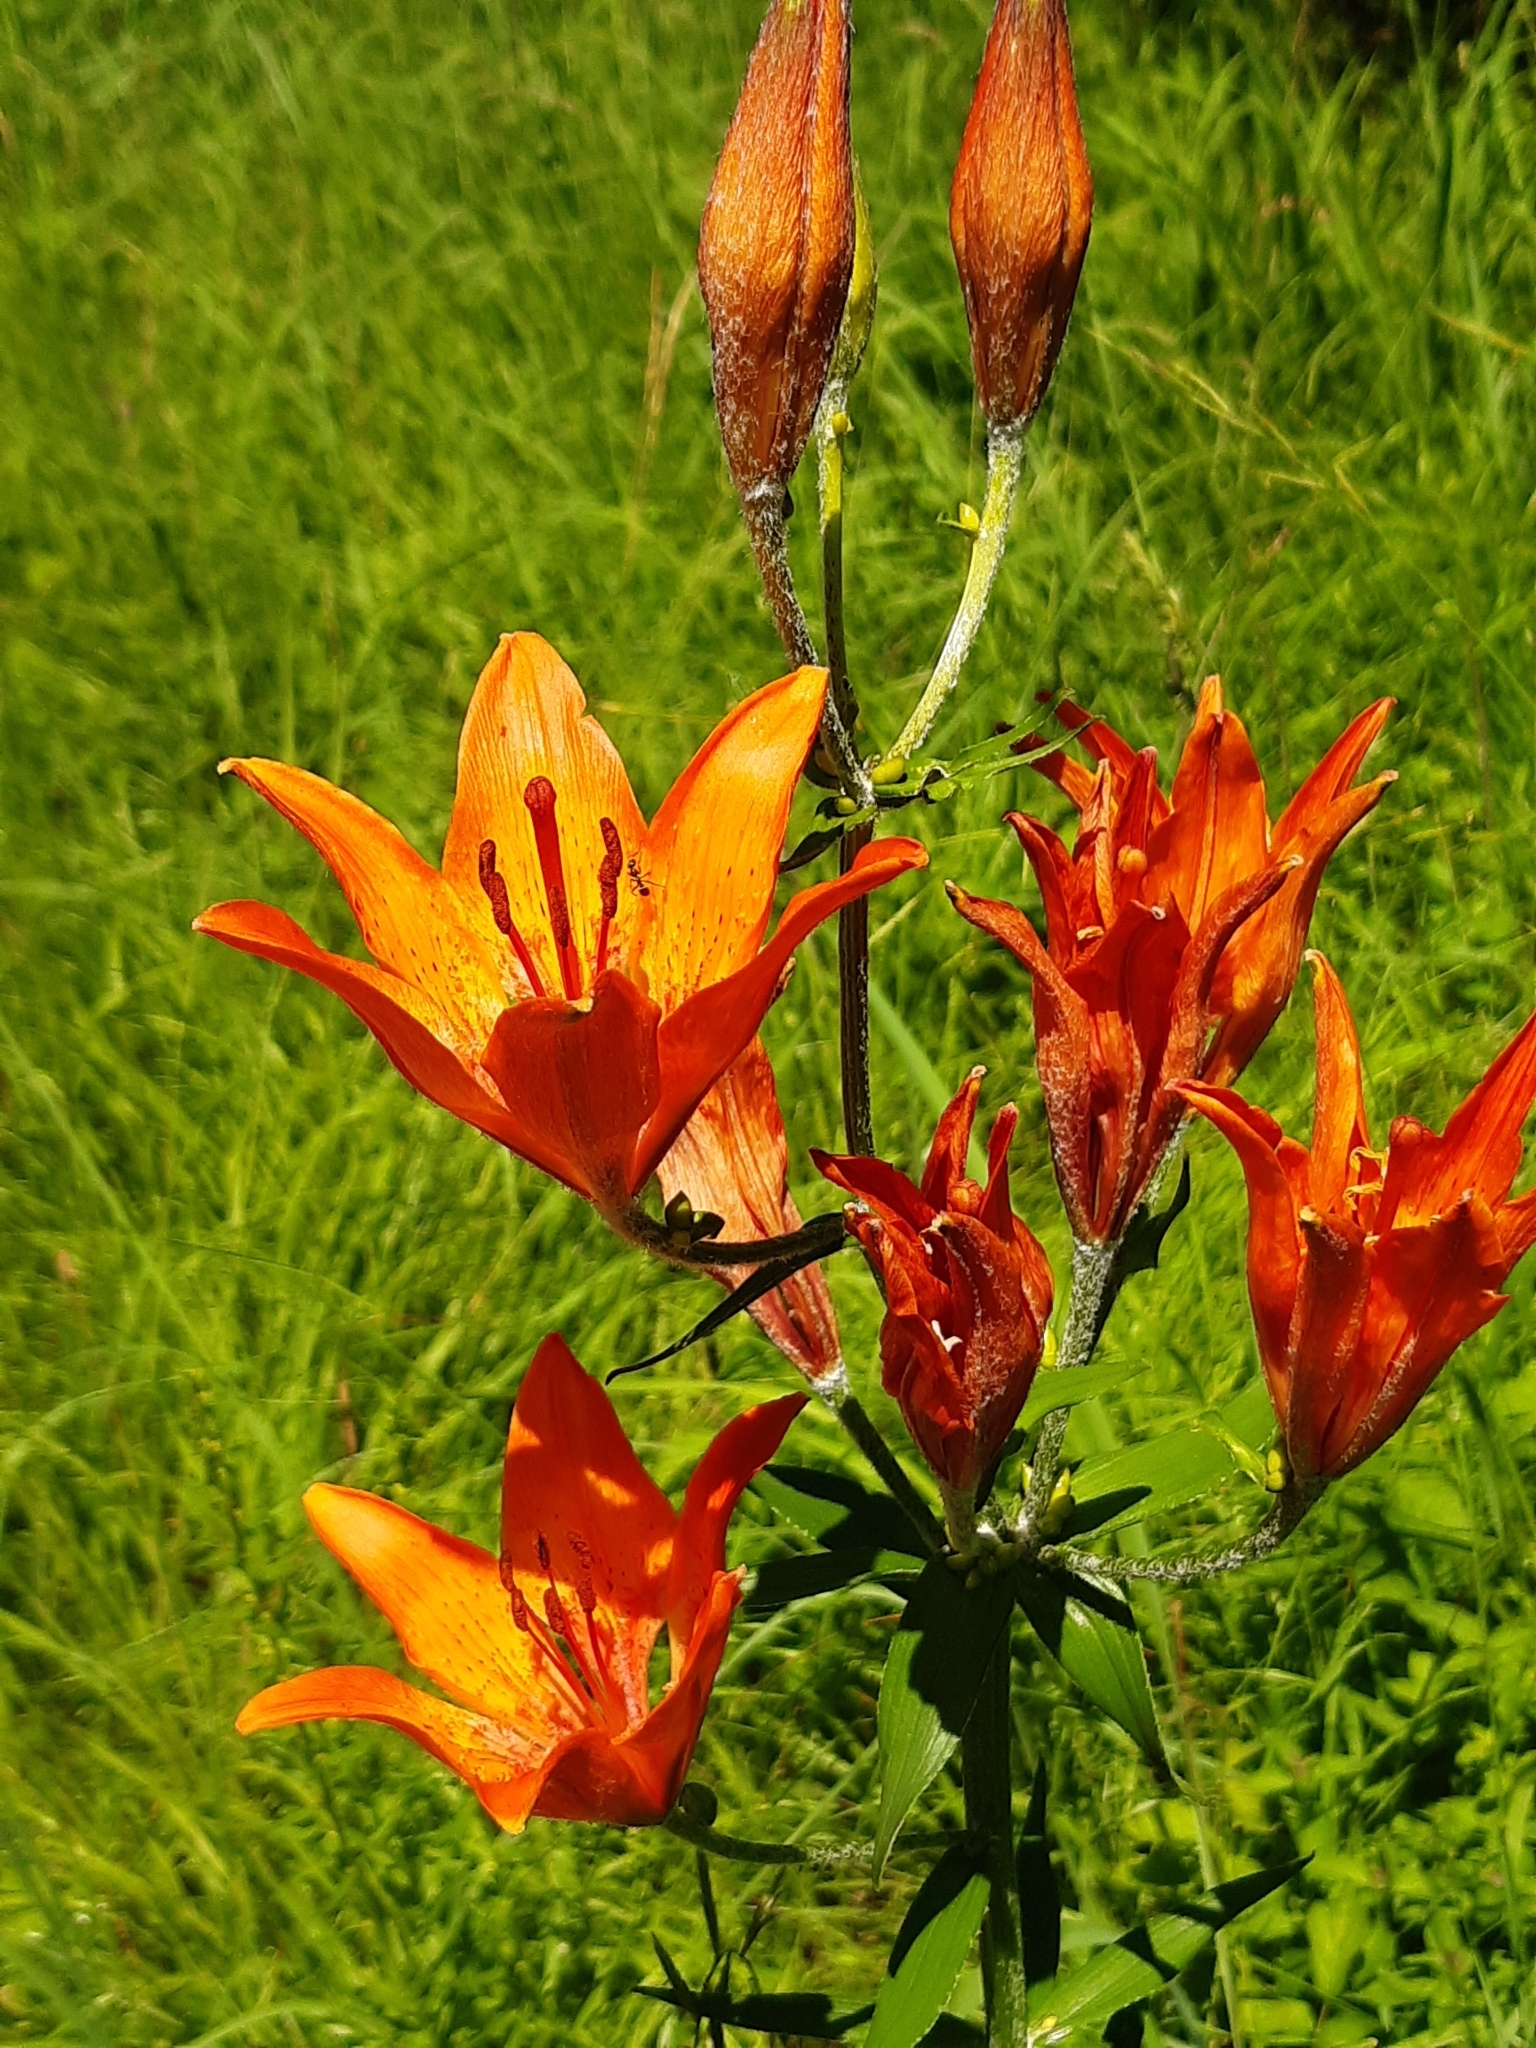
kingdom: Plantae
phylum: Tracheophyta
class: Liliopsida
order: Liliales
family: Liliaceae
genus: Lilium
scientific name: Lilium bulbiferum
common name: Orange lily
